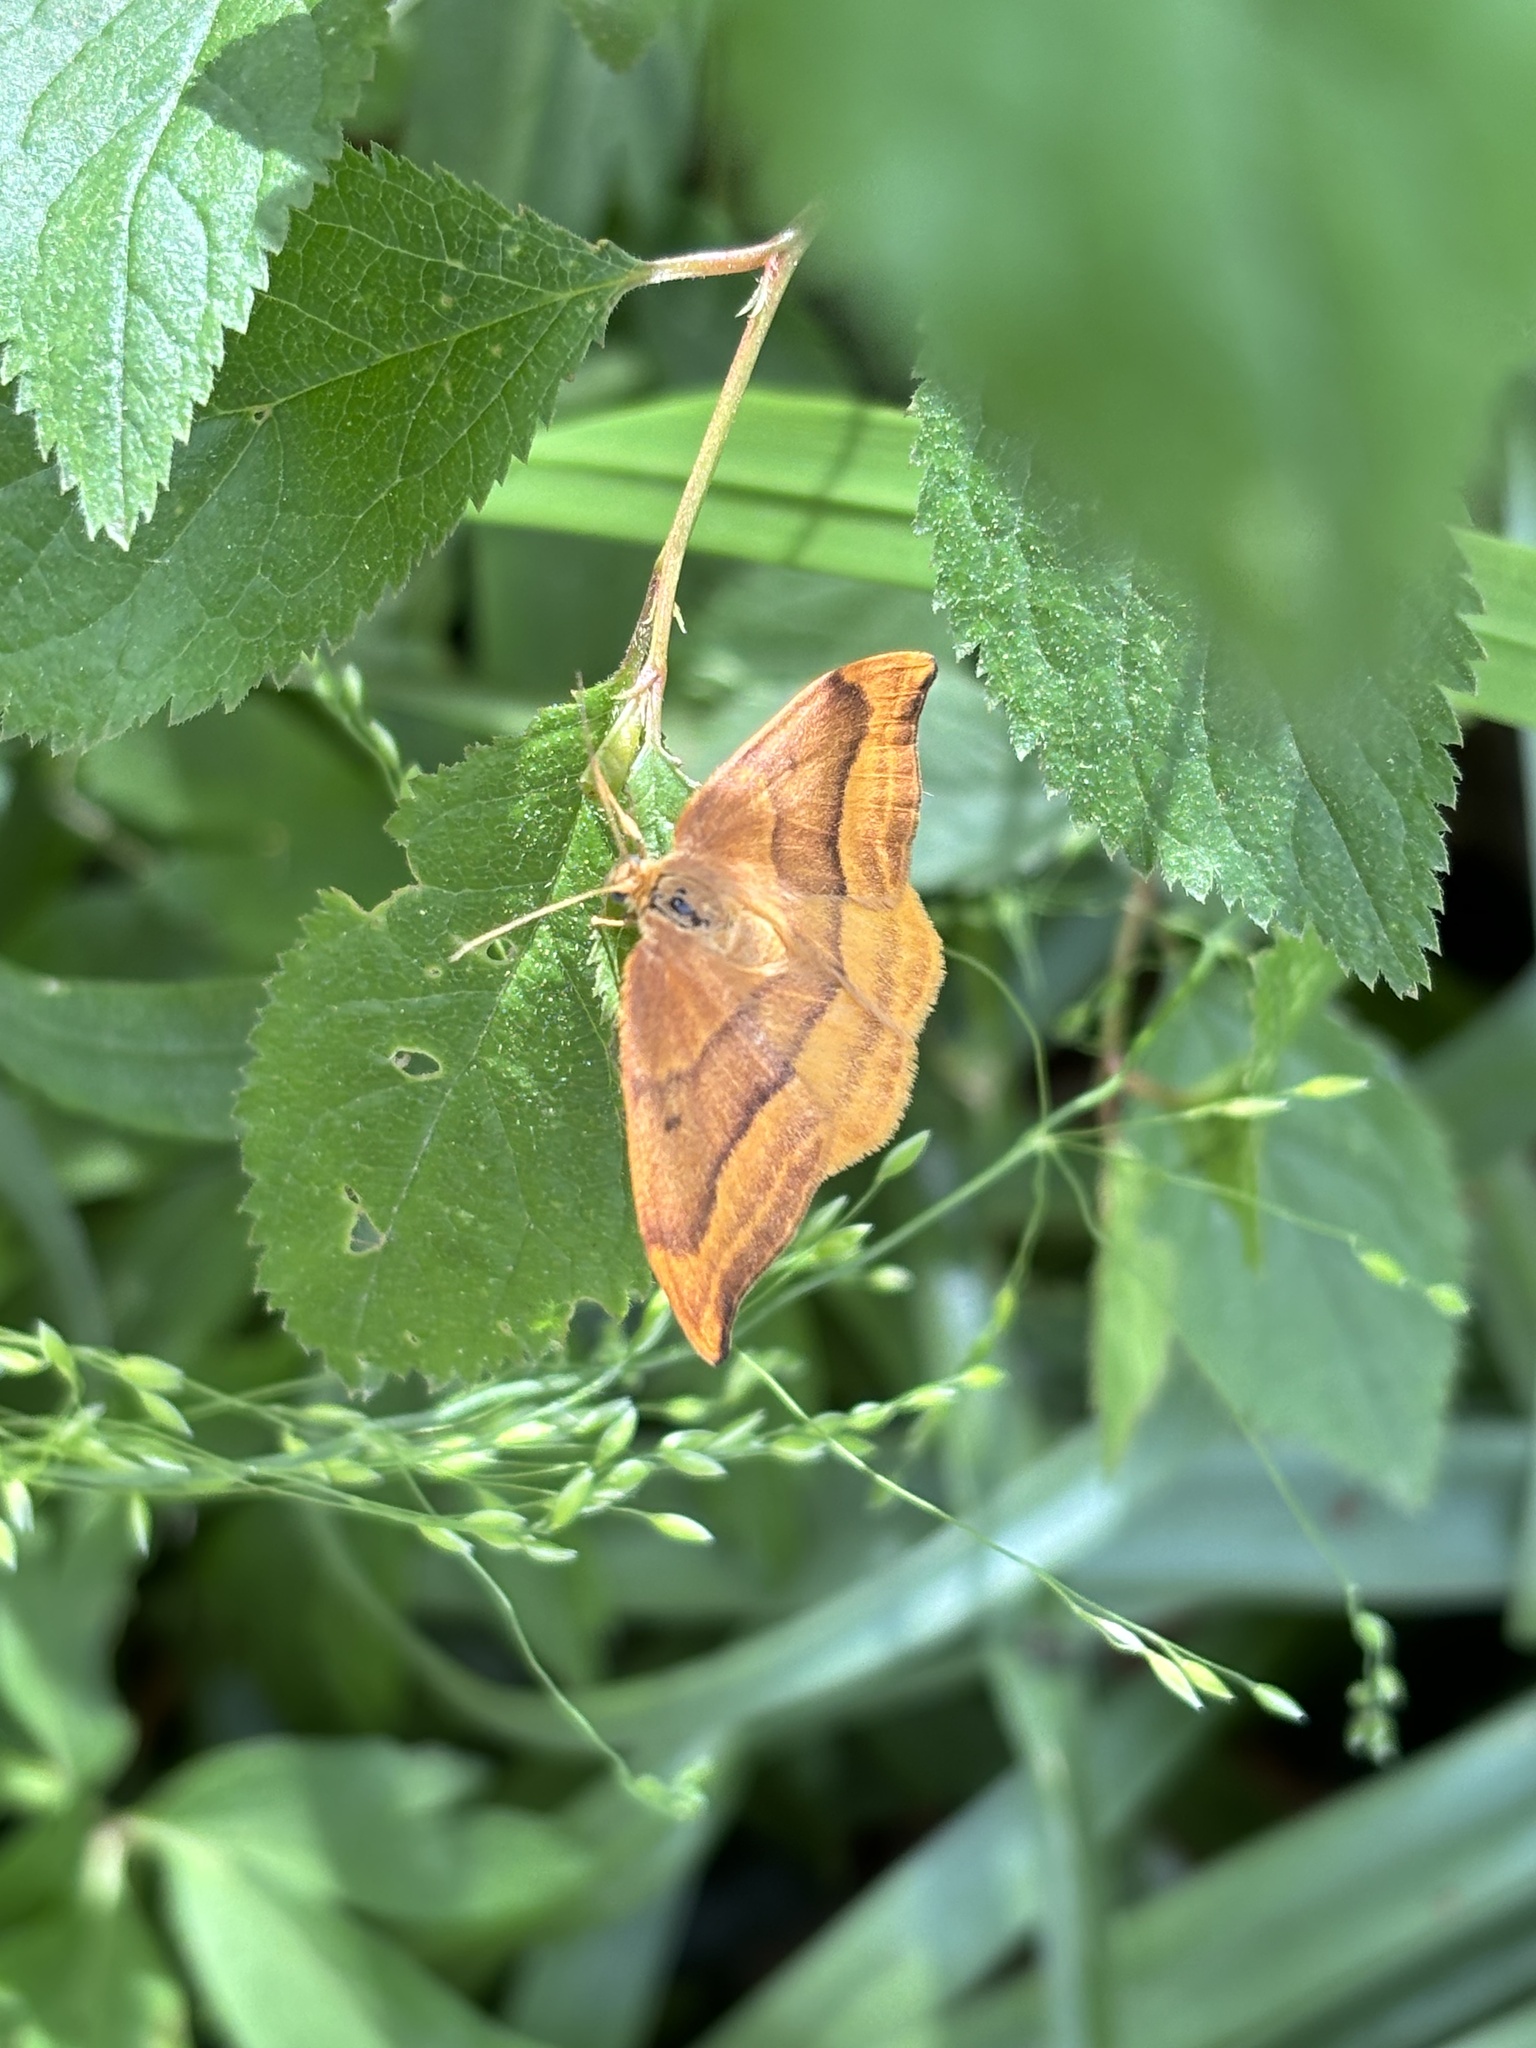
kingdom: Animalia
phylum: Arthropoda
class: Insecta
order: Lepidoptera
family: Drepanidae
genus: Watsonalla
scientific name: Watsonalla cultraria
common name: Barred hook-tip
